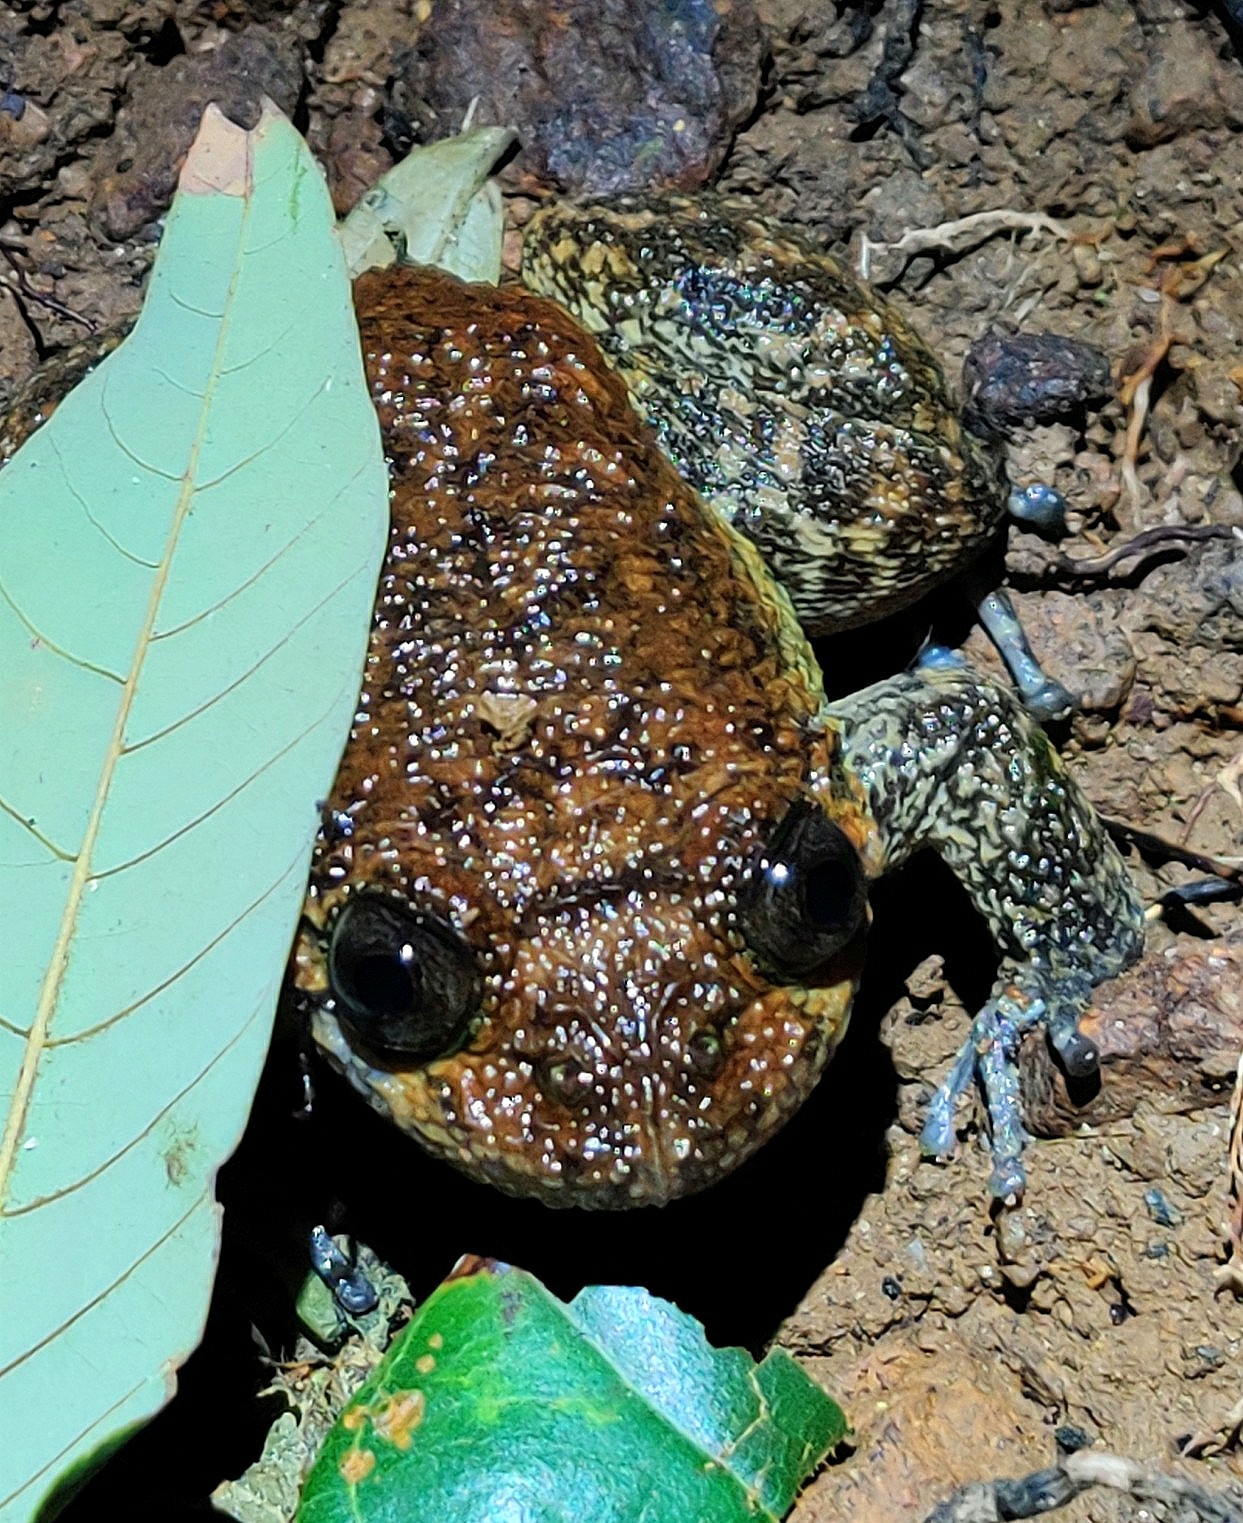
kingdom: Animalia
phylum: Chordata
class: Amphibia
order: Anura
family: Nyctibatrachidae
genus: Nyctibatrachus
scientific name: Nyctibatrachus grandis
